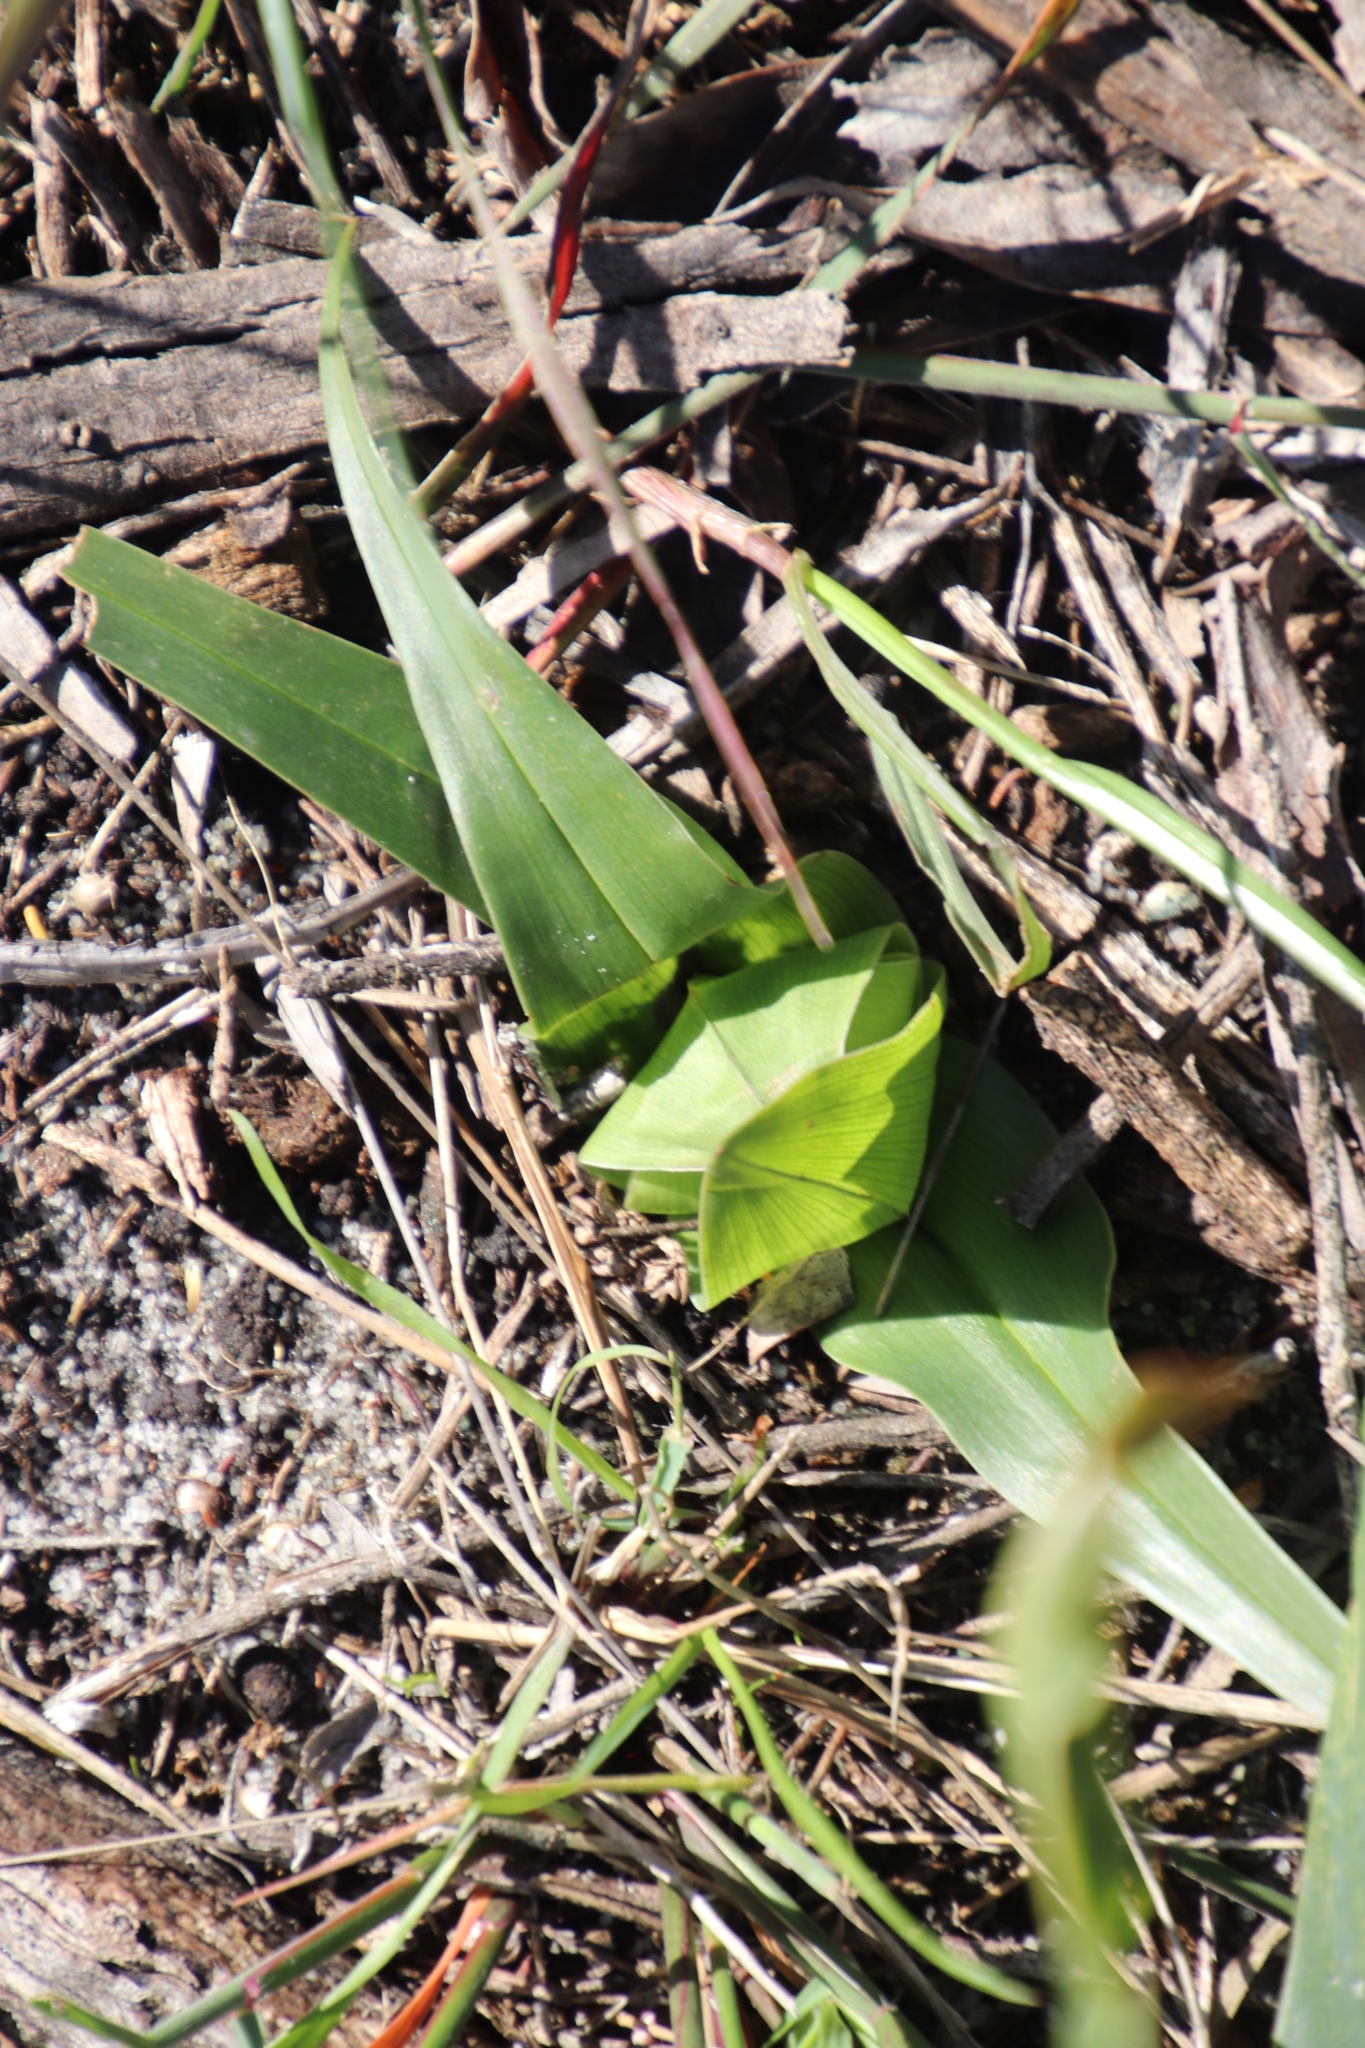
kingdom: Plantae
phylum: Tracheophyta
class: Liliopsida
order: Liliales
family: Colchicaceae
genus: Colchicum
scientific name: Colchicum eucomoides
